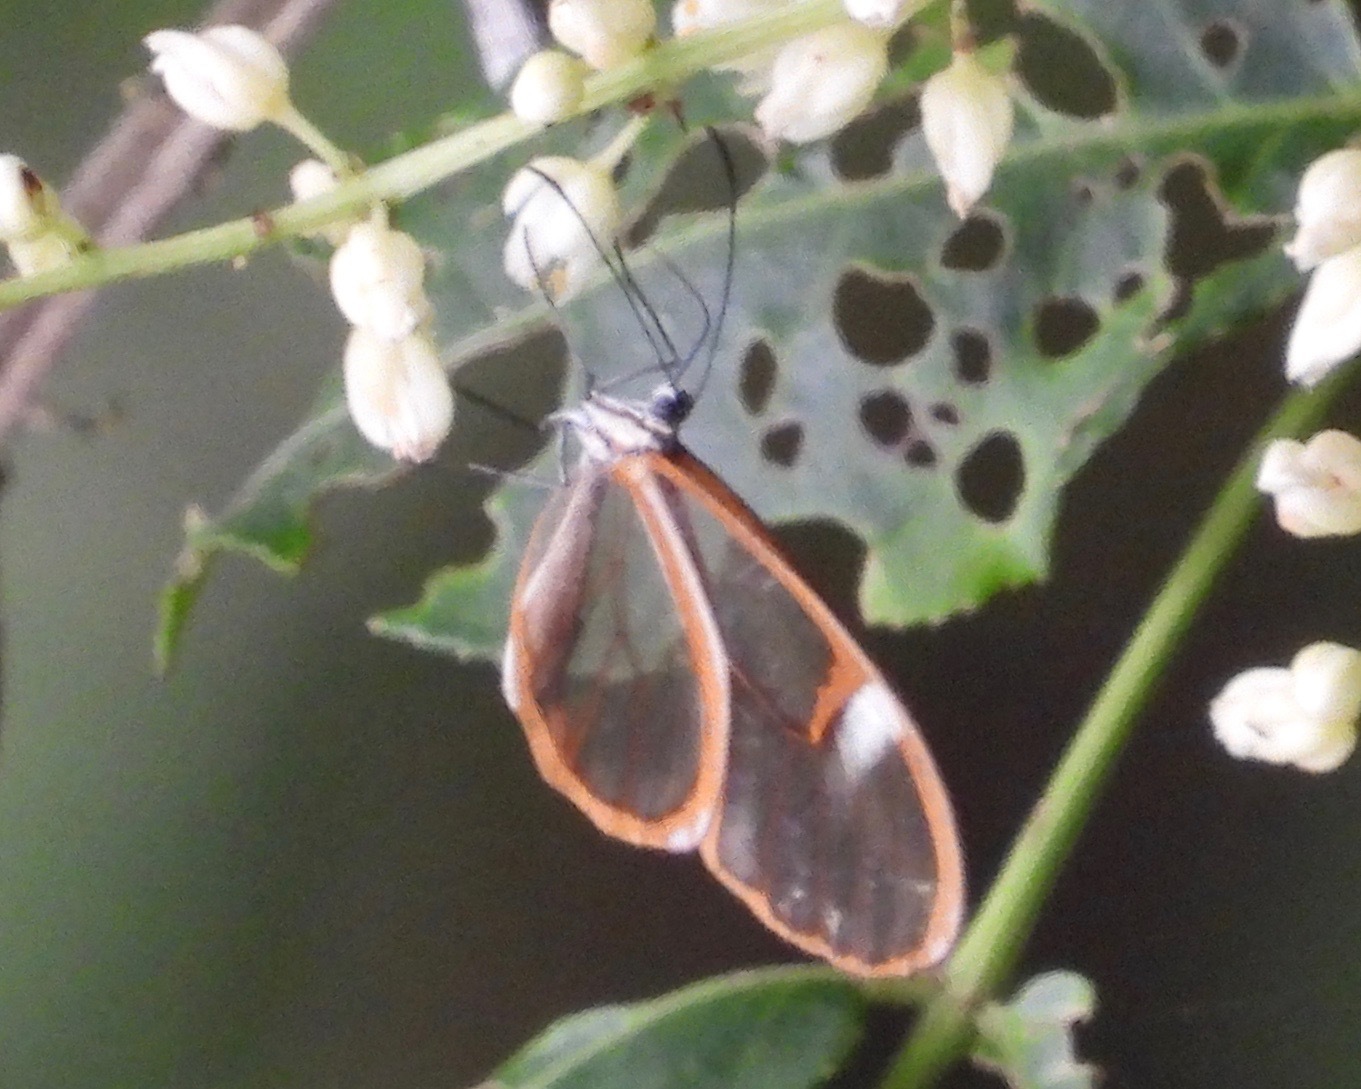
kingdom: Animalia
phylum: Arthropoda
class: Insecta
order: Lepidoptera
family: Nymphalidae
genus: Episcada
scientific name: Episcada salvinia
